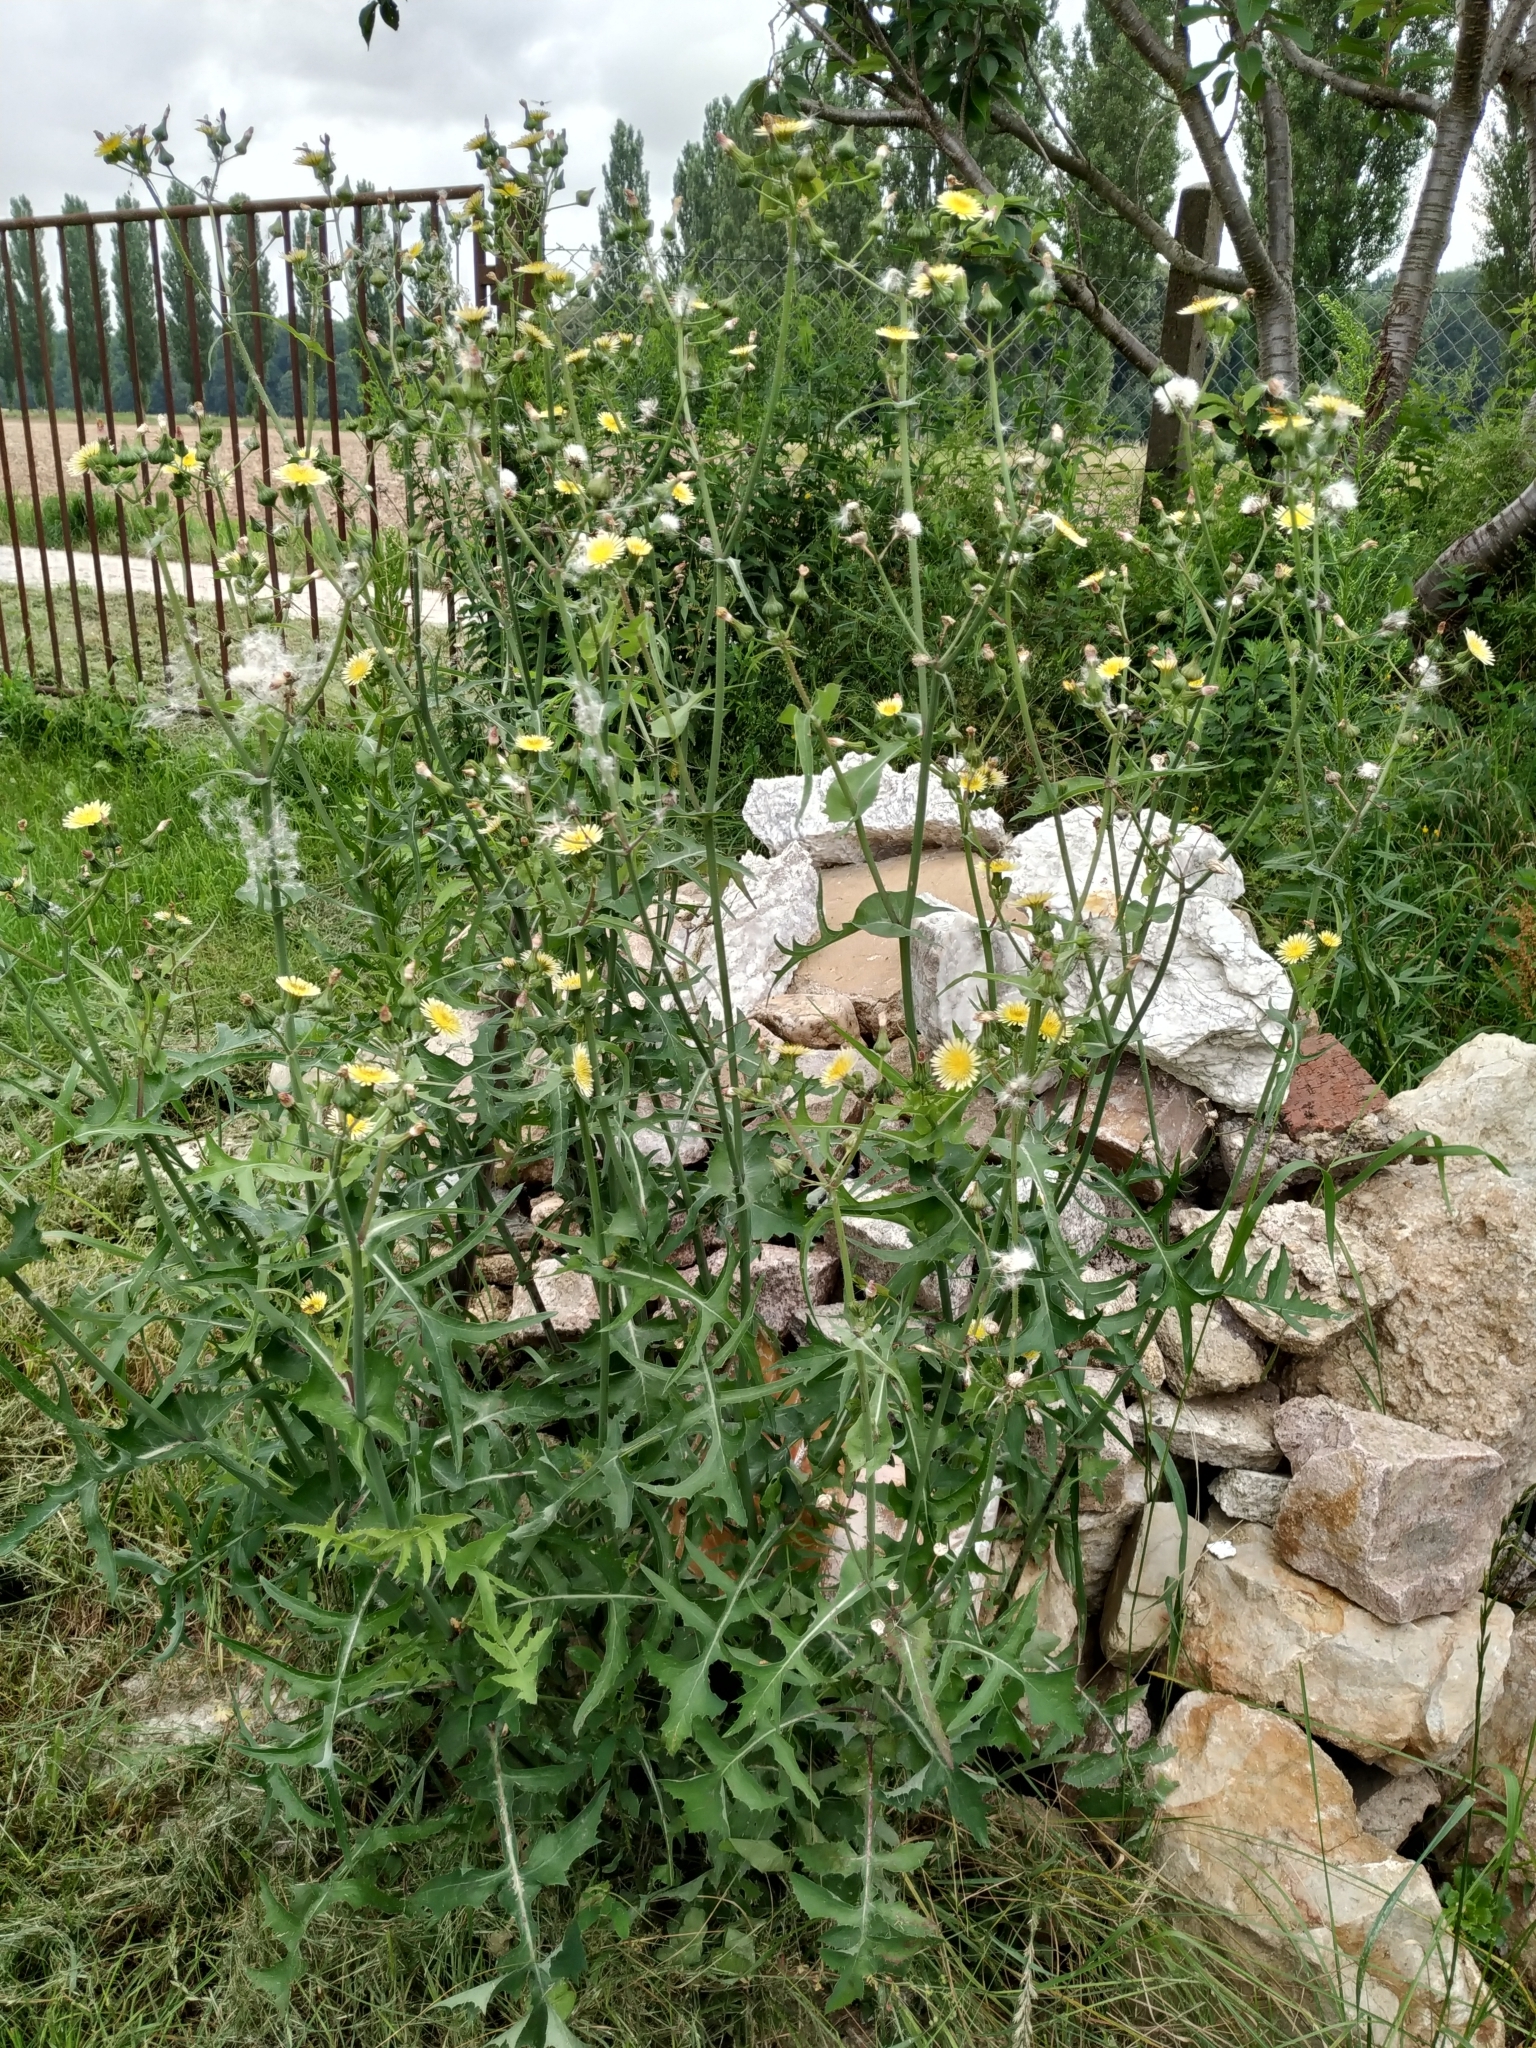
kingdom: Plantae
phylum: Tracheophyta
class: Magnoliopsida
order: Asterales
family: Asteraceae
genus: Sonchus
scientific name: Sonchus oleraceus
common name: Common sowthistle
